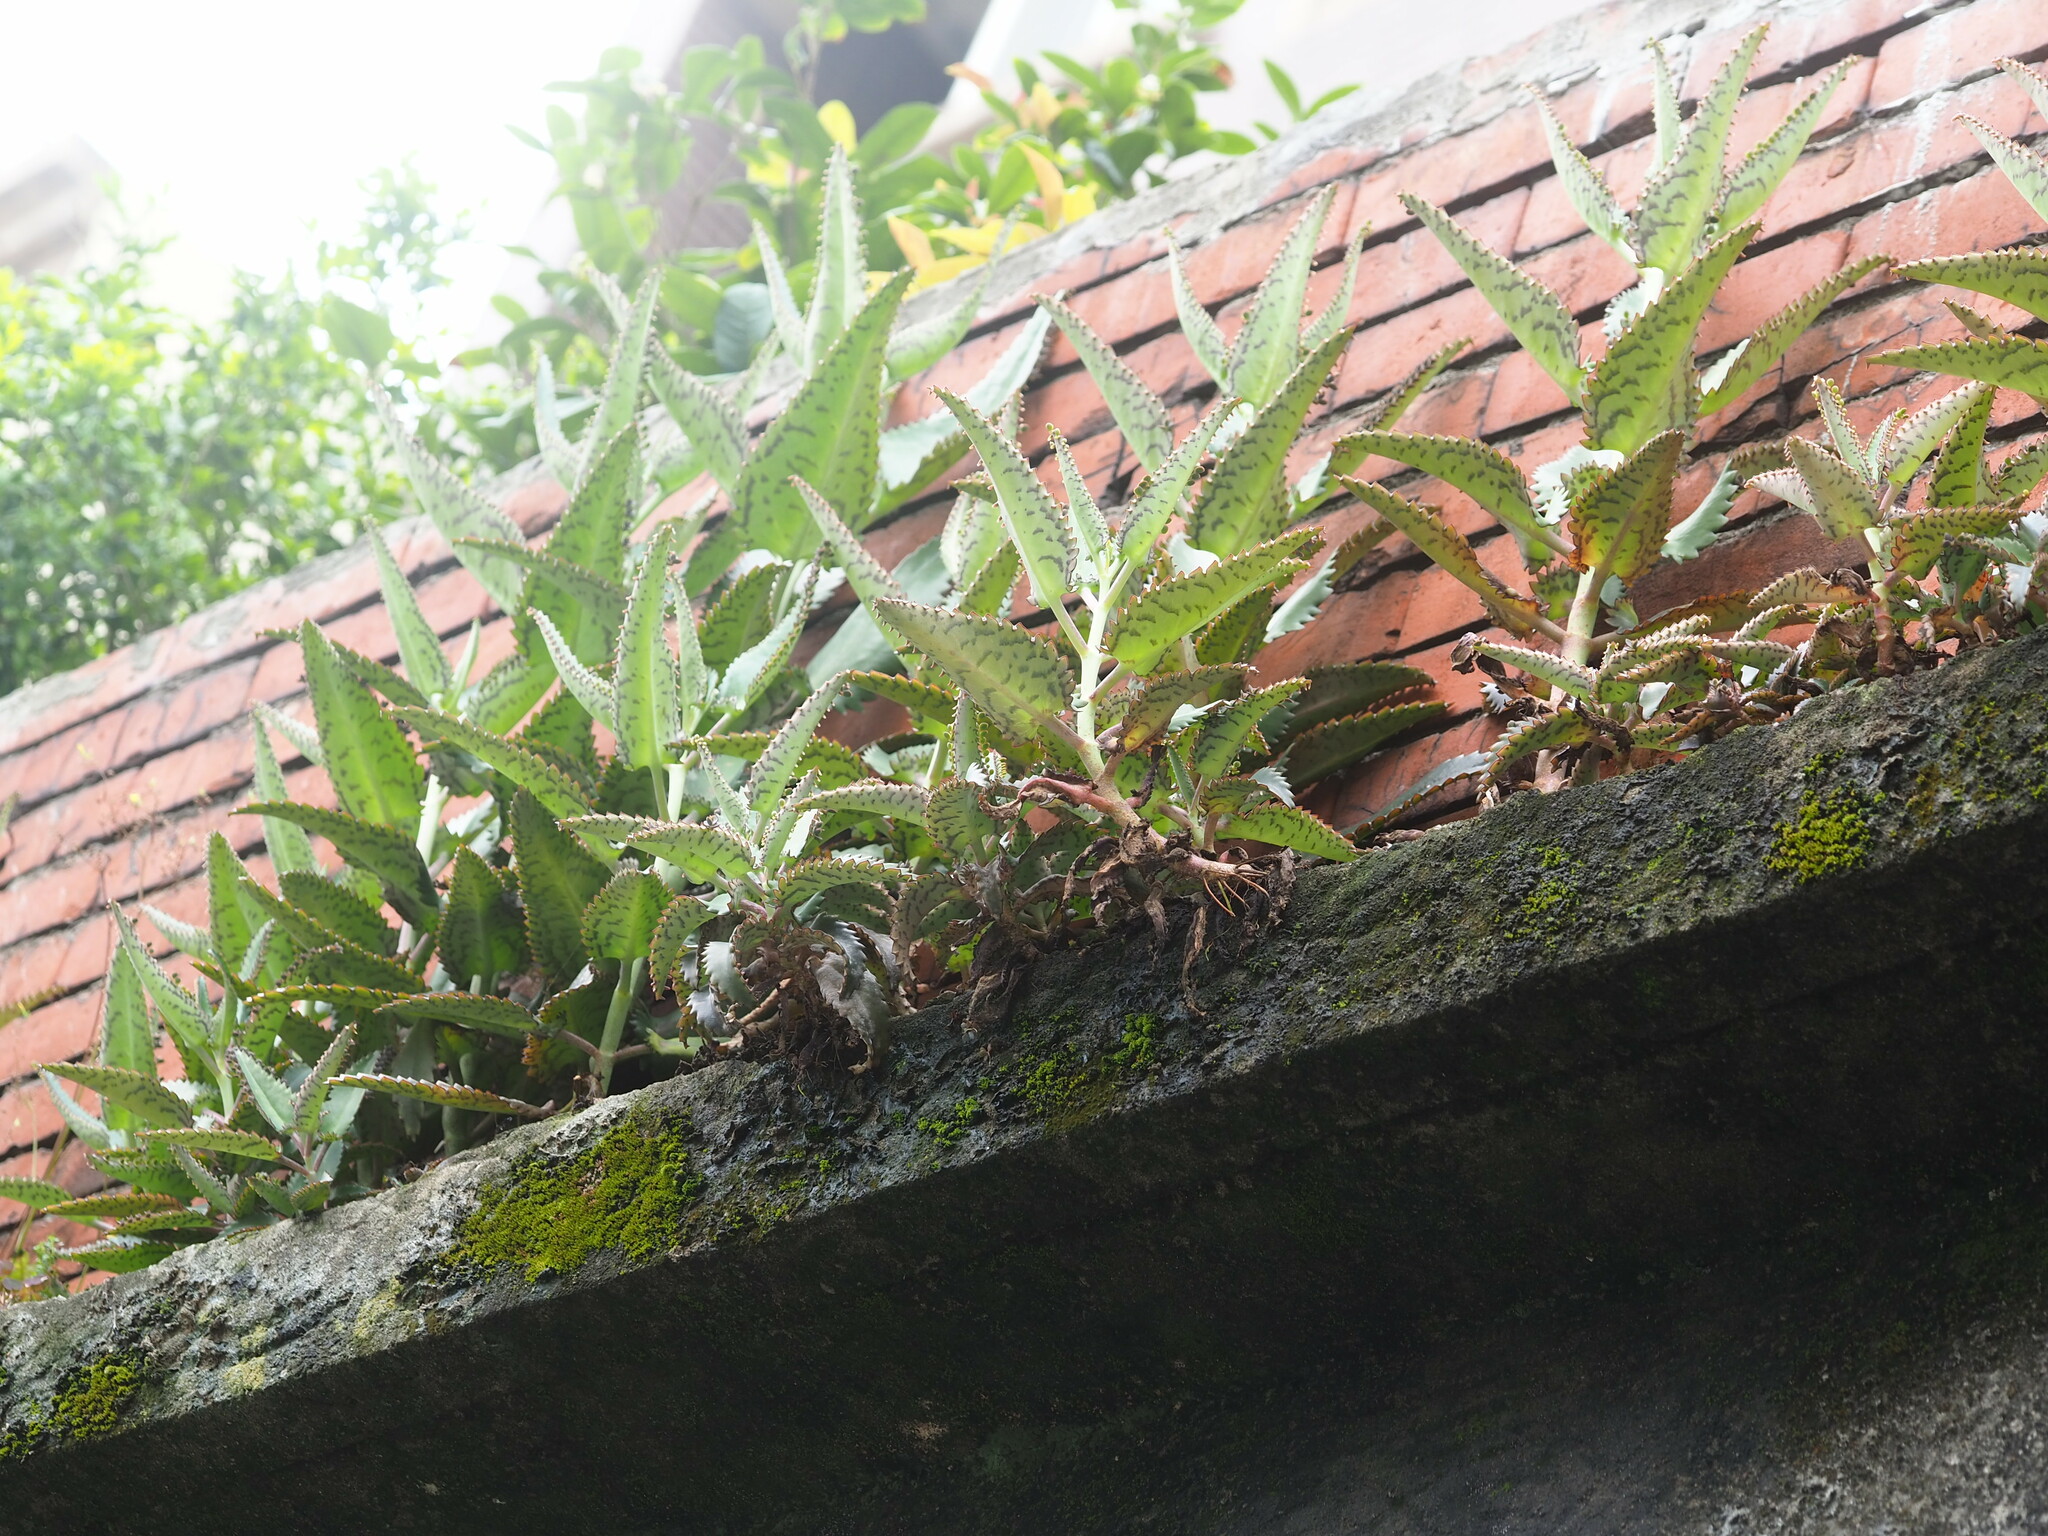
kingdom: Plantae
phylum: Tracheophyta
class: Magnoliopsida
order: Saxifragales
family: Crassulaceae
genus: Kalanchoe
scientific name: Kalanchoe daigremontiana
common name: Devil's backbone
